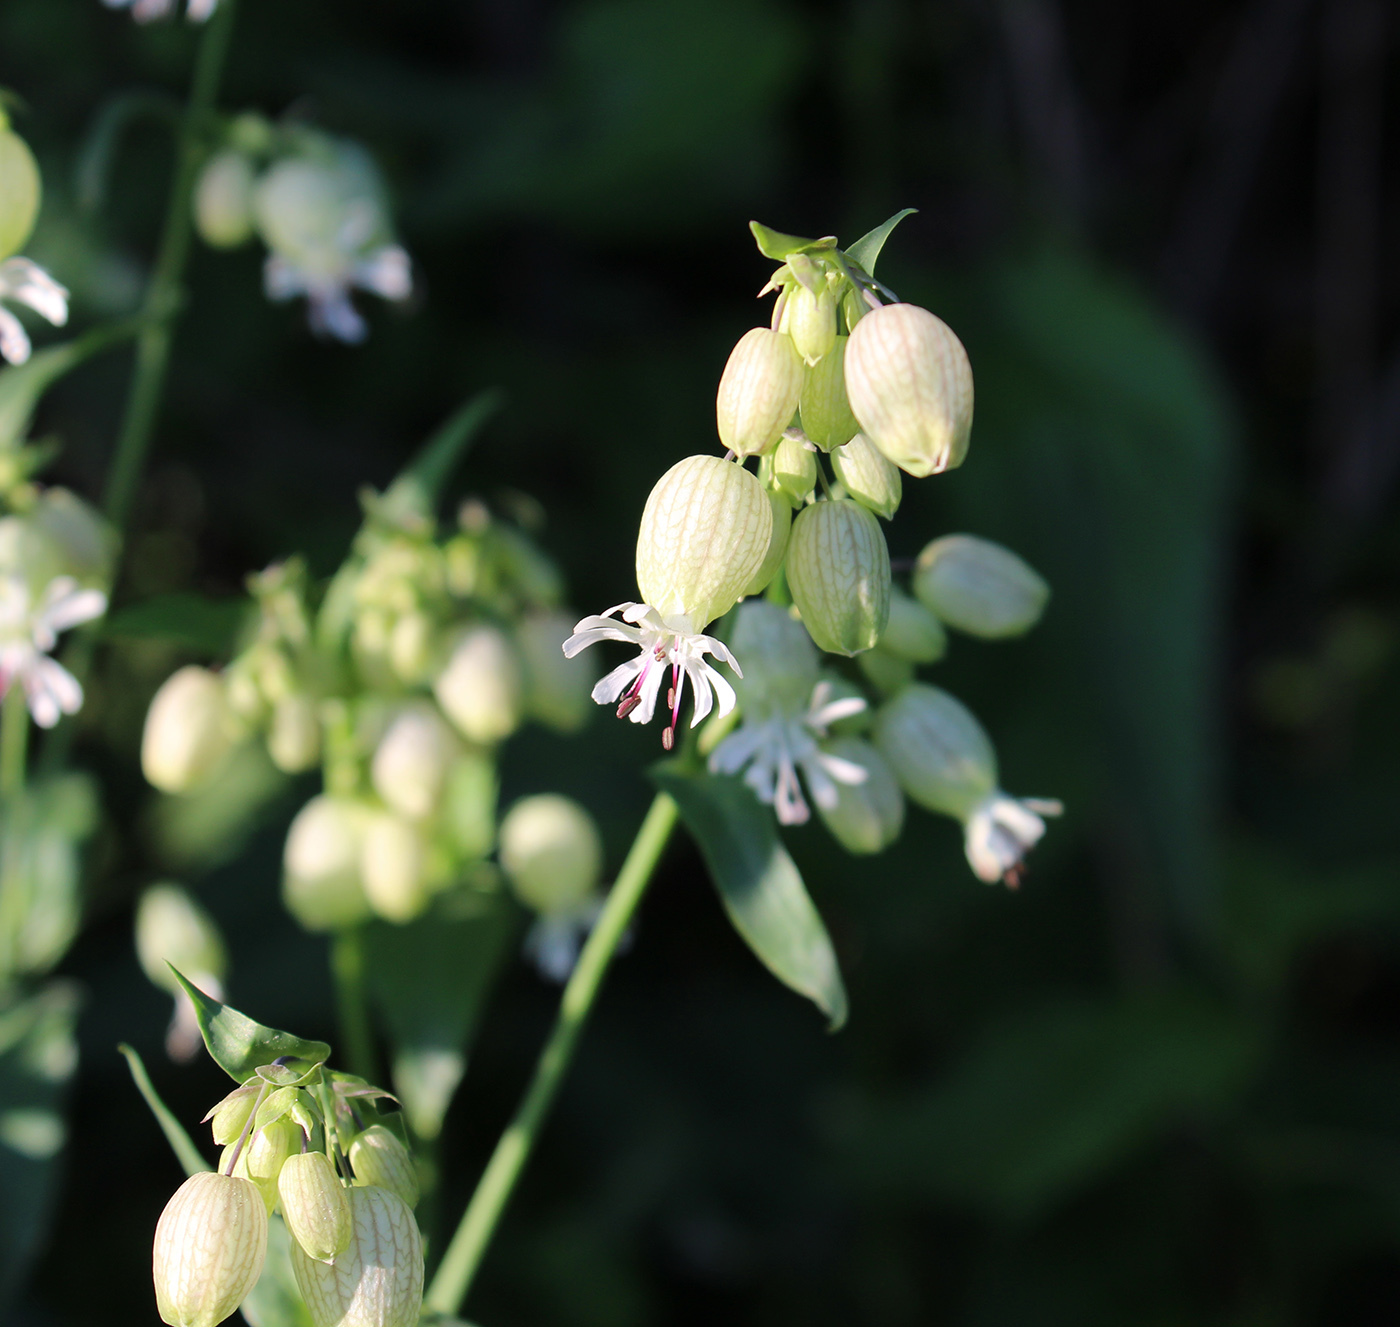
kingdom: Plantae
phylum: Tracheophyta
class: Magnoliopsida
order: Caryophyllales
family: Caryophyllaceae
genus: Silene
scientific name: Silene vulgaris
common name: Bladder campion
